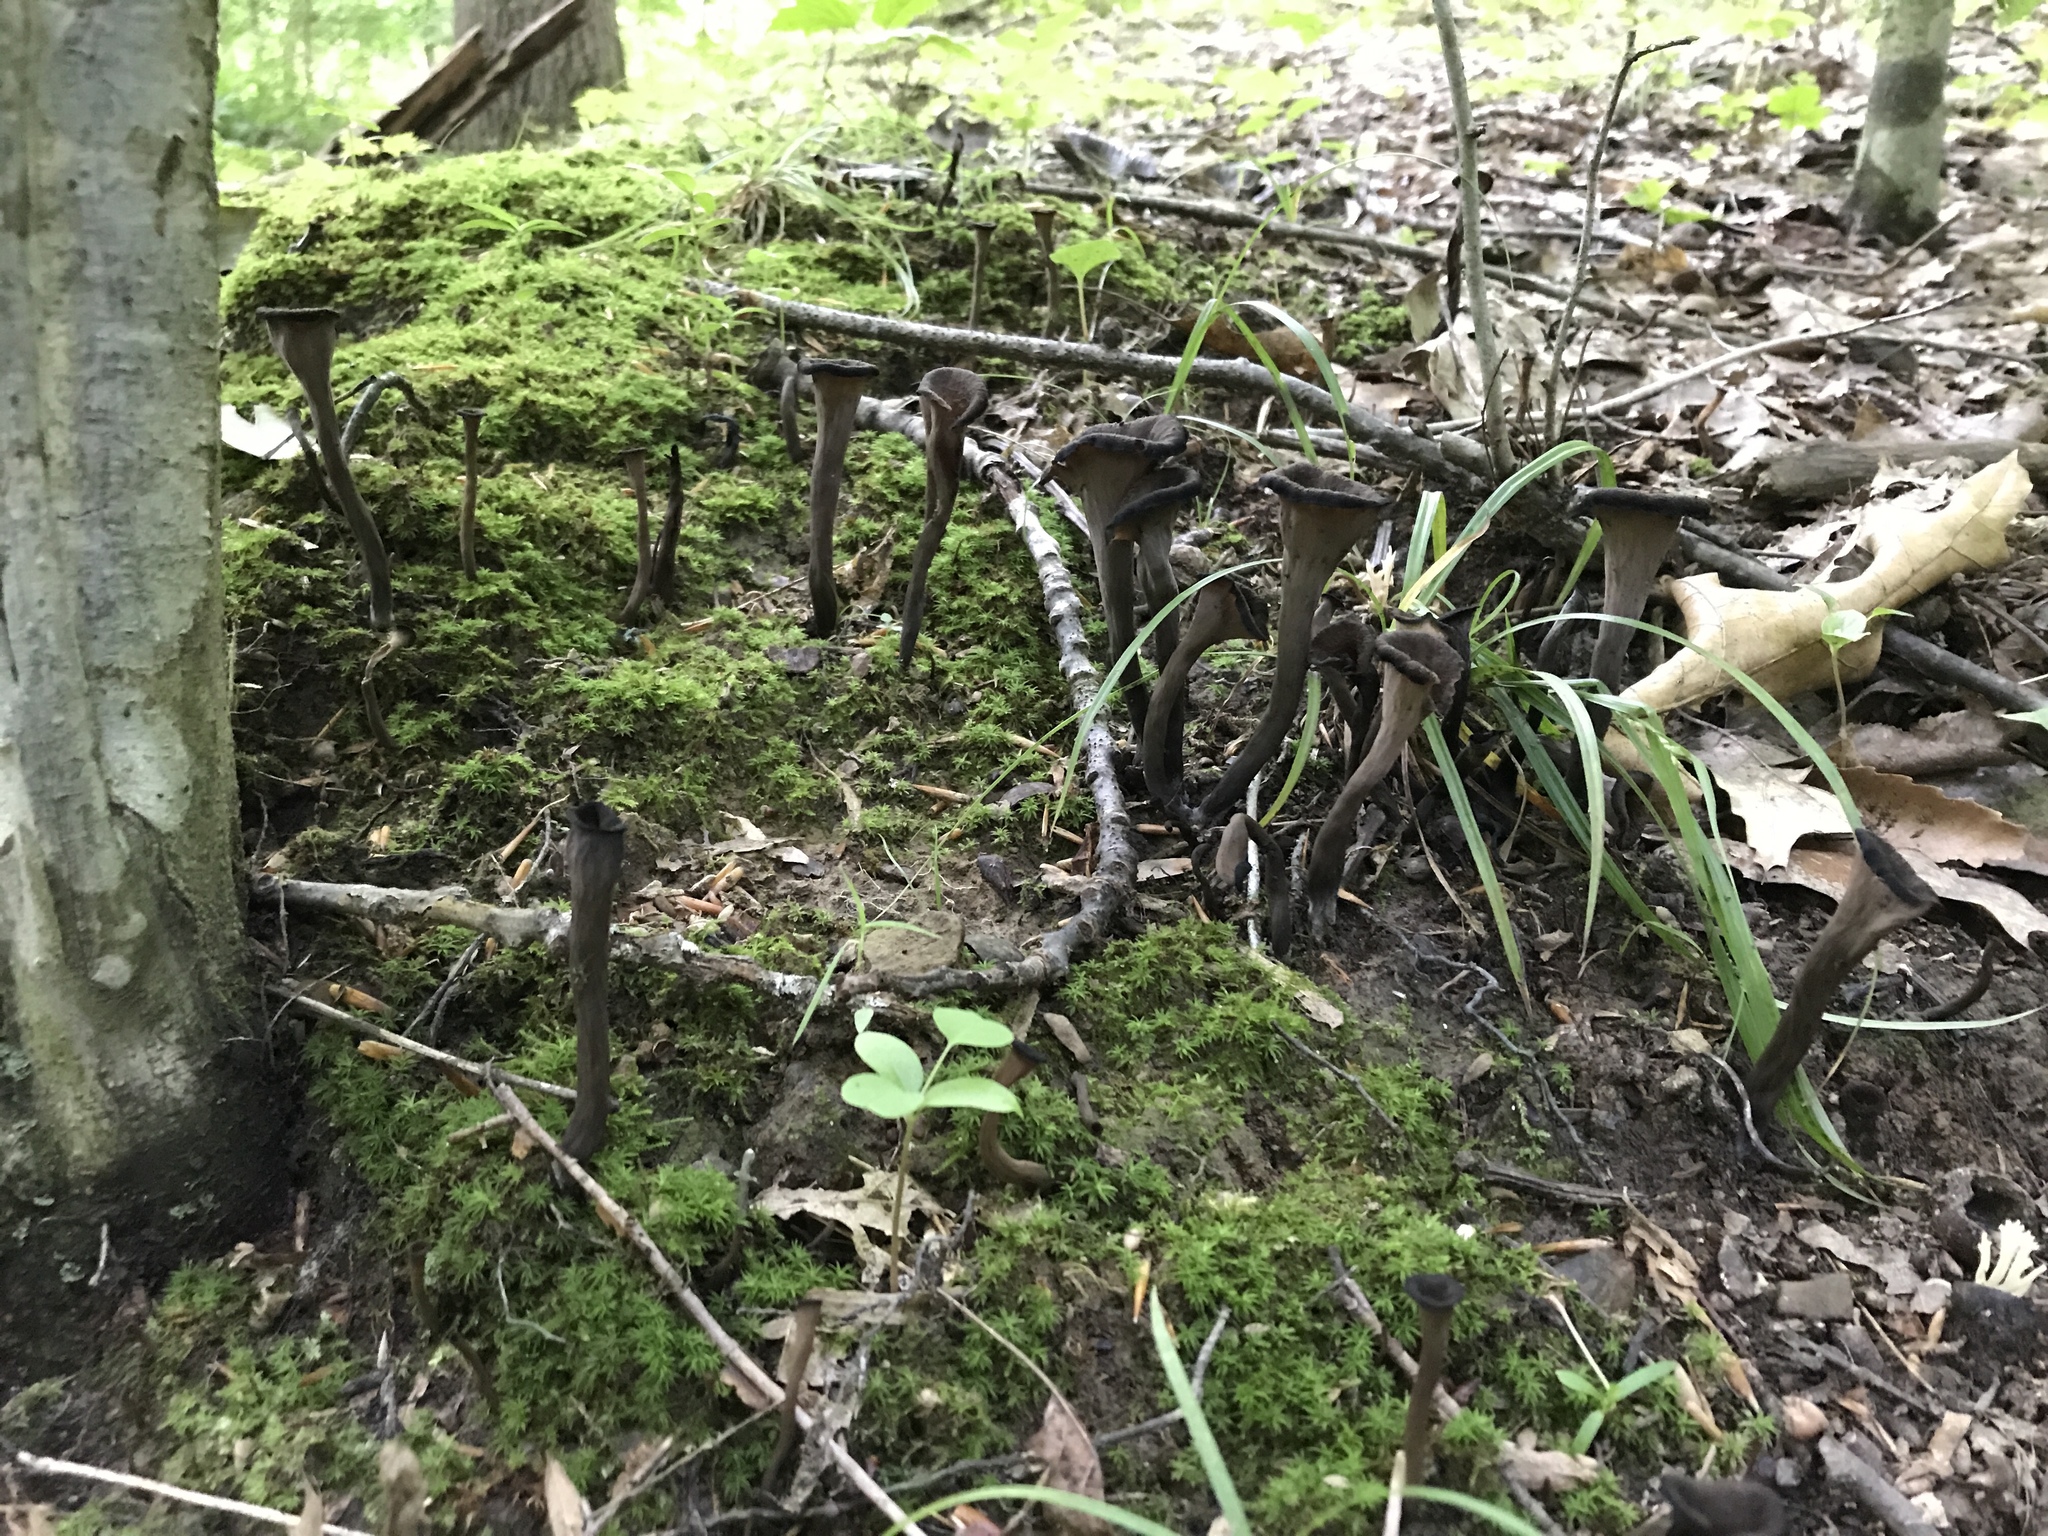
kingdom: Fungi
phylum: Basidiomycota
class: Agaricomycetes
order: Cantharellales
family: Hydnaceae
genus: Craterellus
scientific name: Craterellus cornucopioides
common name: Horn of plenty
